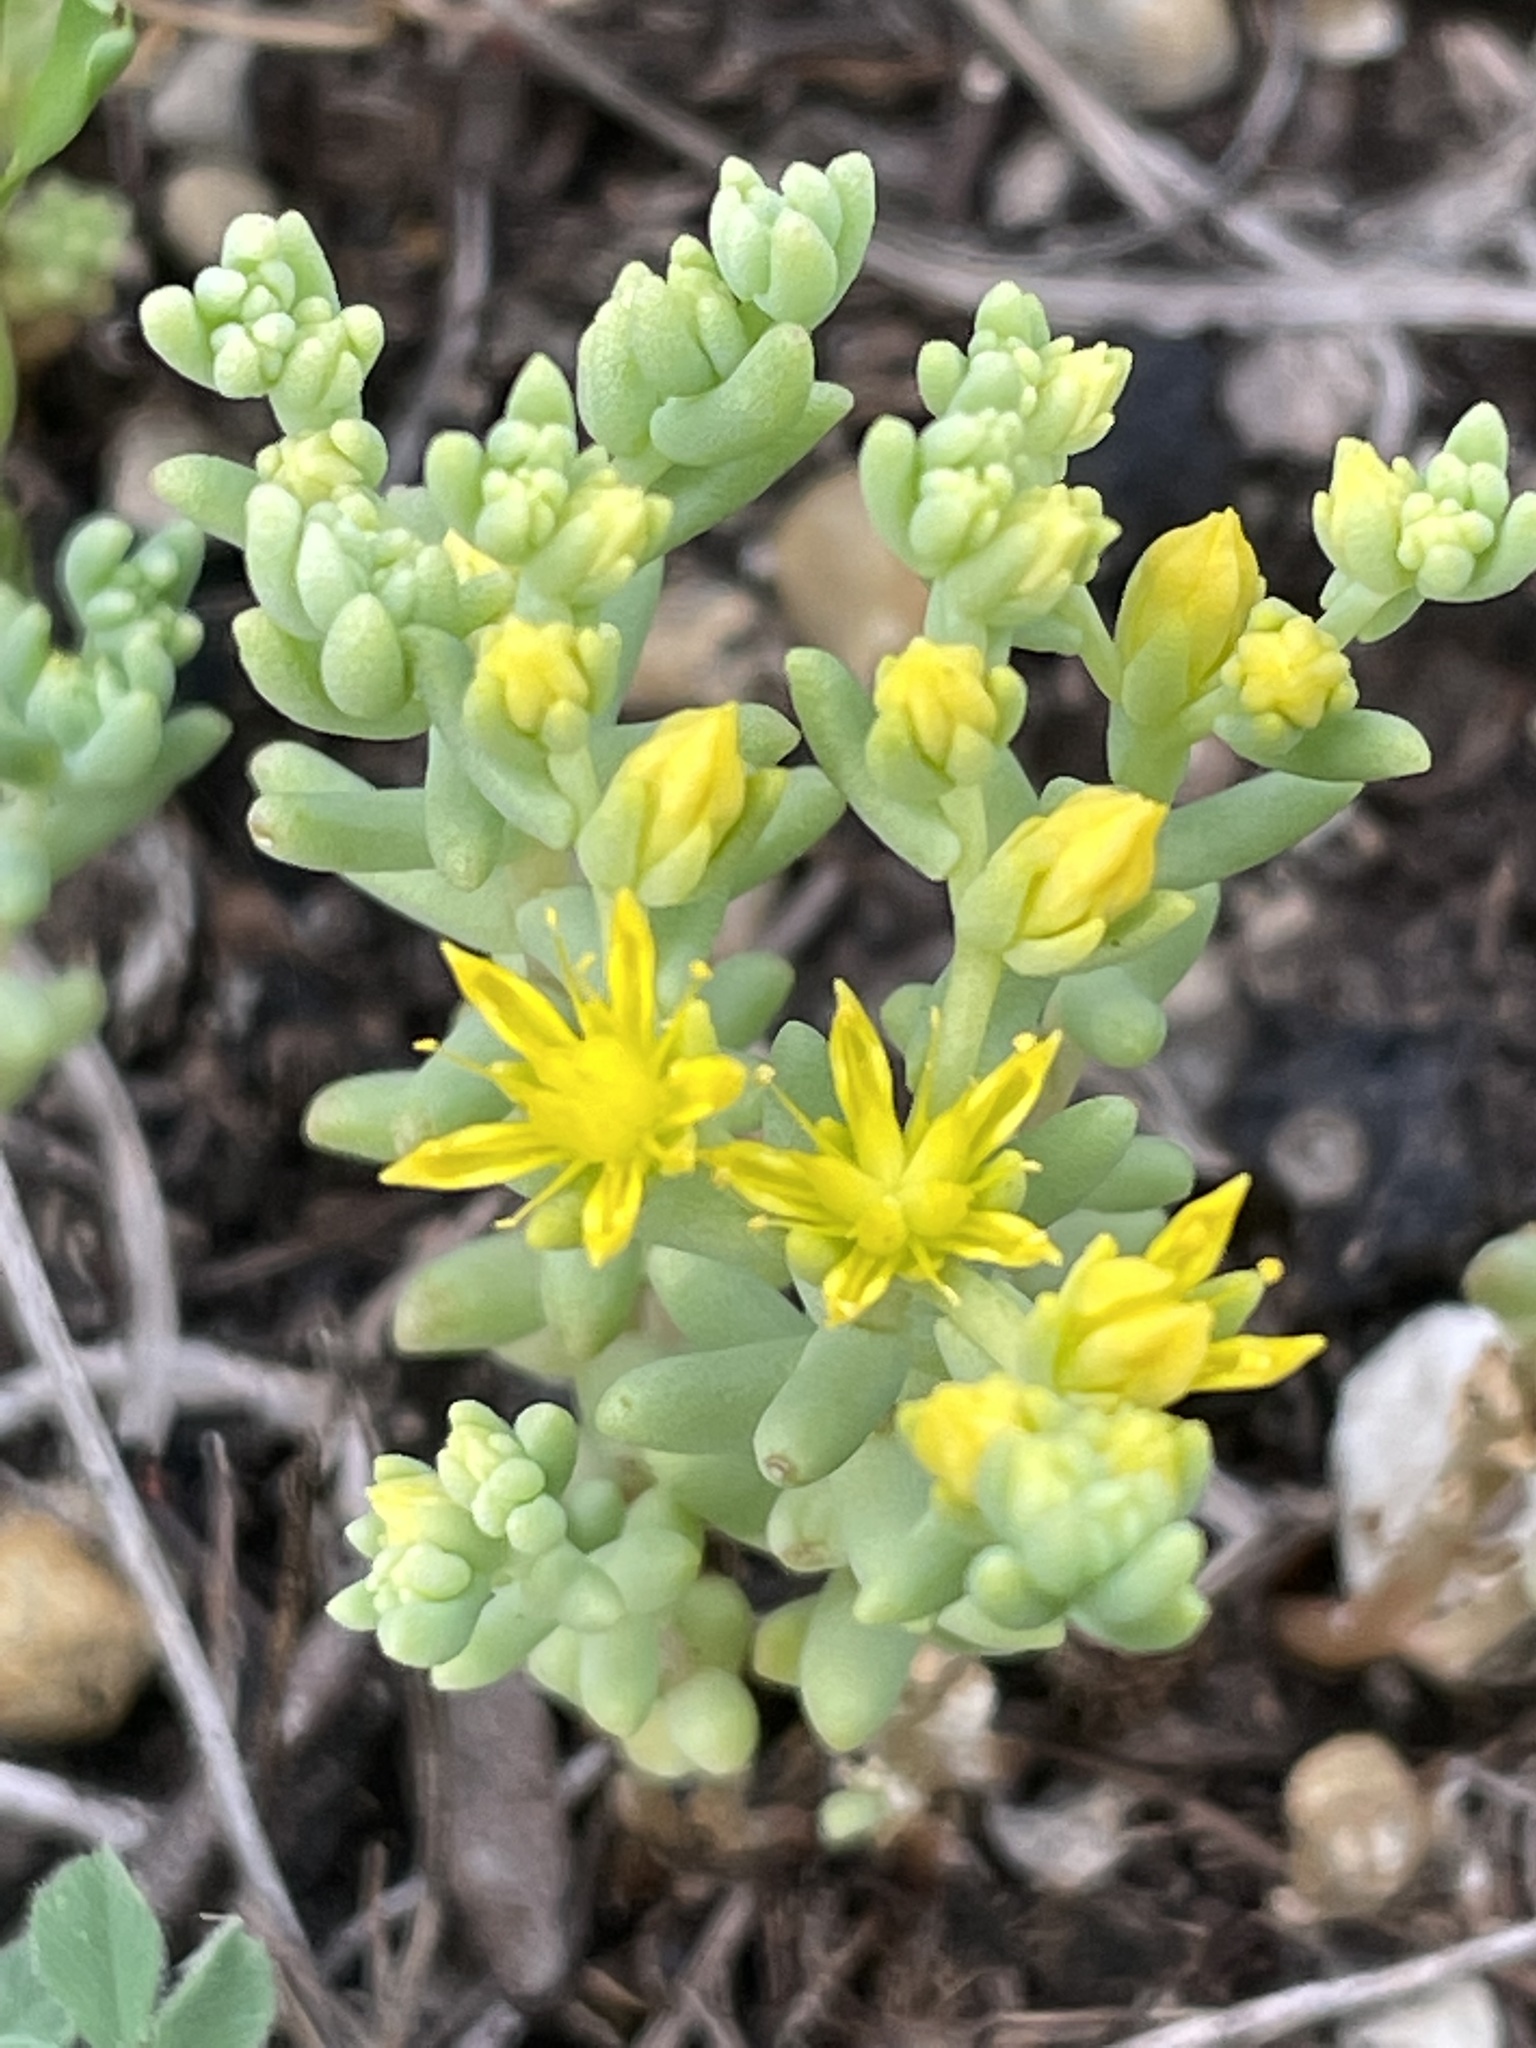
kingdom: Plantae
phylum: Tracheophyta
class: Magnoliopsida
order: Saxifragales
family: Crassulaceae
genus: Sedum
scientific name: Sedum nuttallii
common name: Yellow stonecrop
